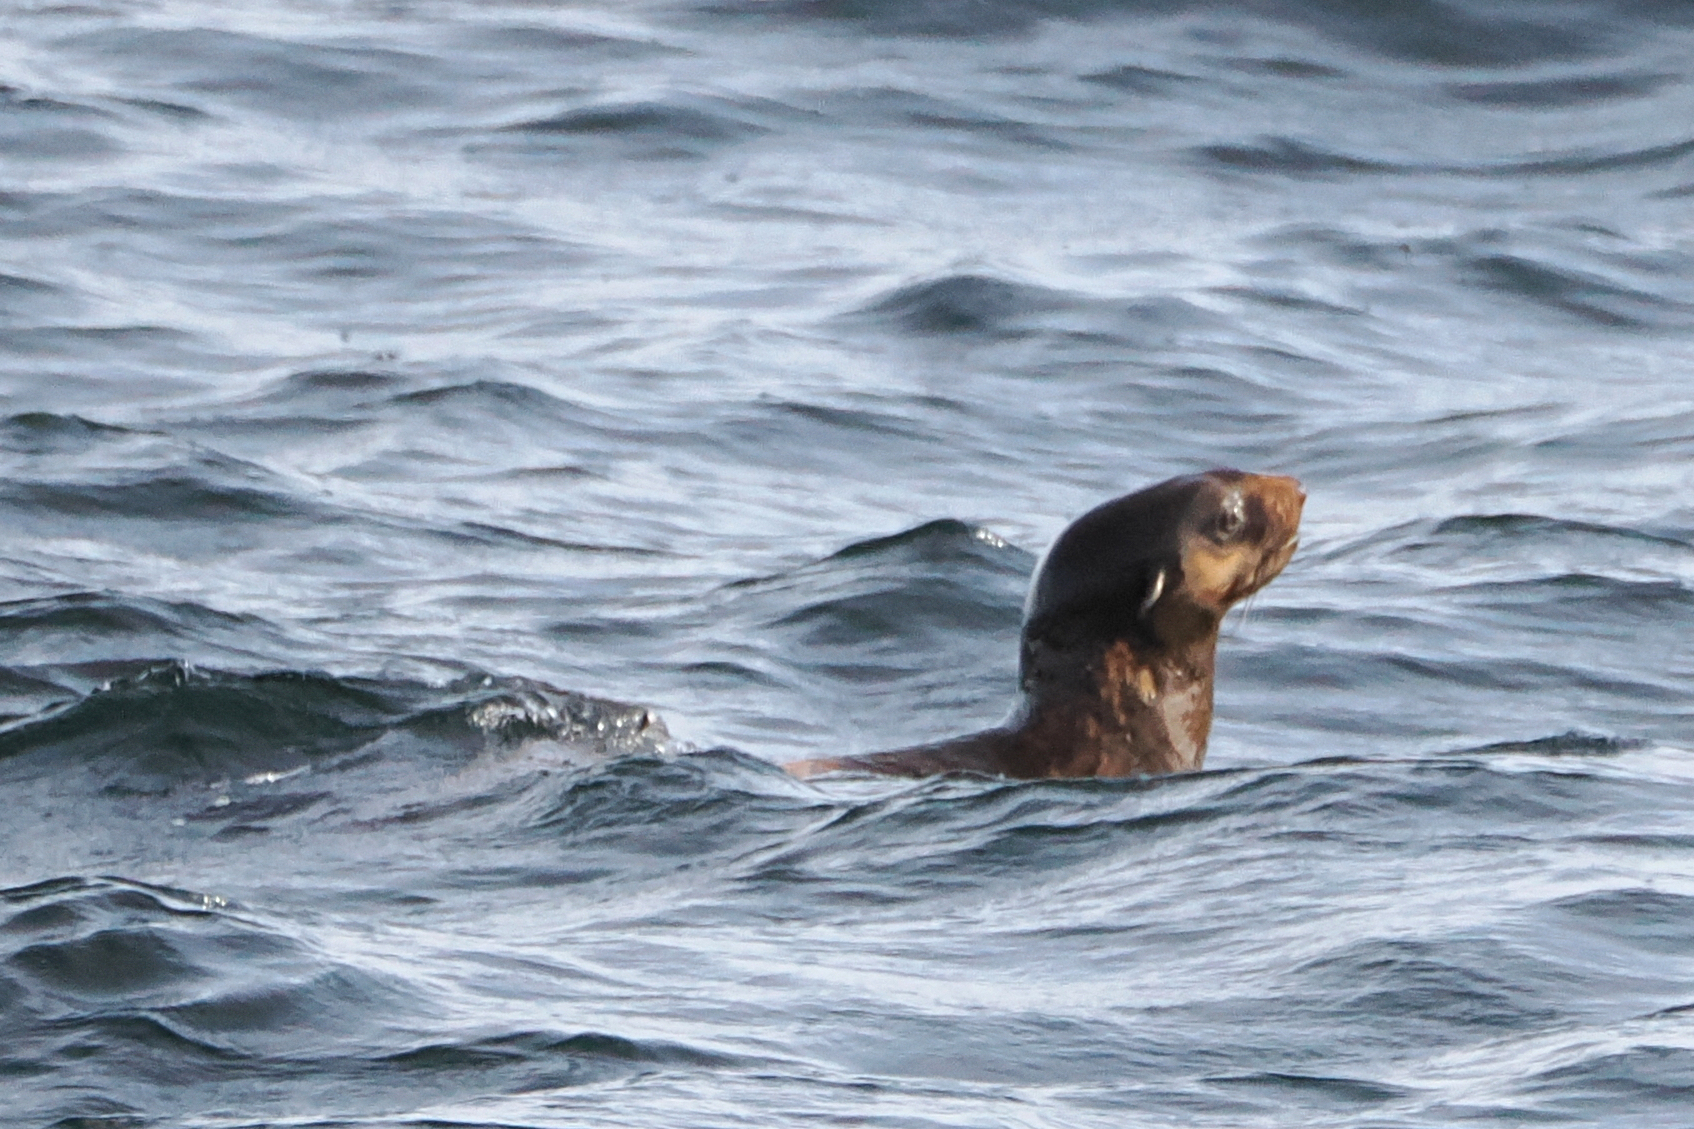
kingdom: Animalia
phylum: Chordata
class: Mammalia
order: Carnivora
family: Otariidae
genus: Callorhinus
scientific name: Callorhinus ursinus
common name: Northern fur seal
